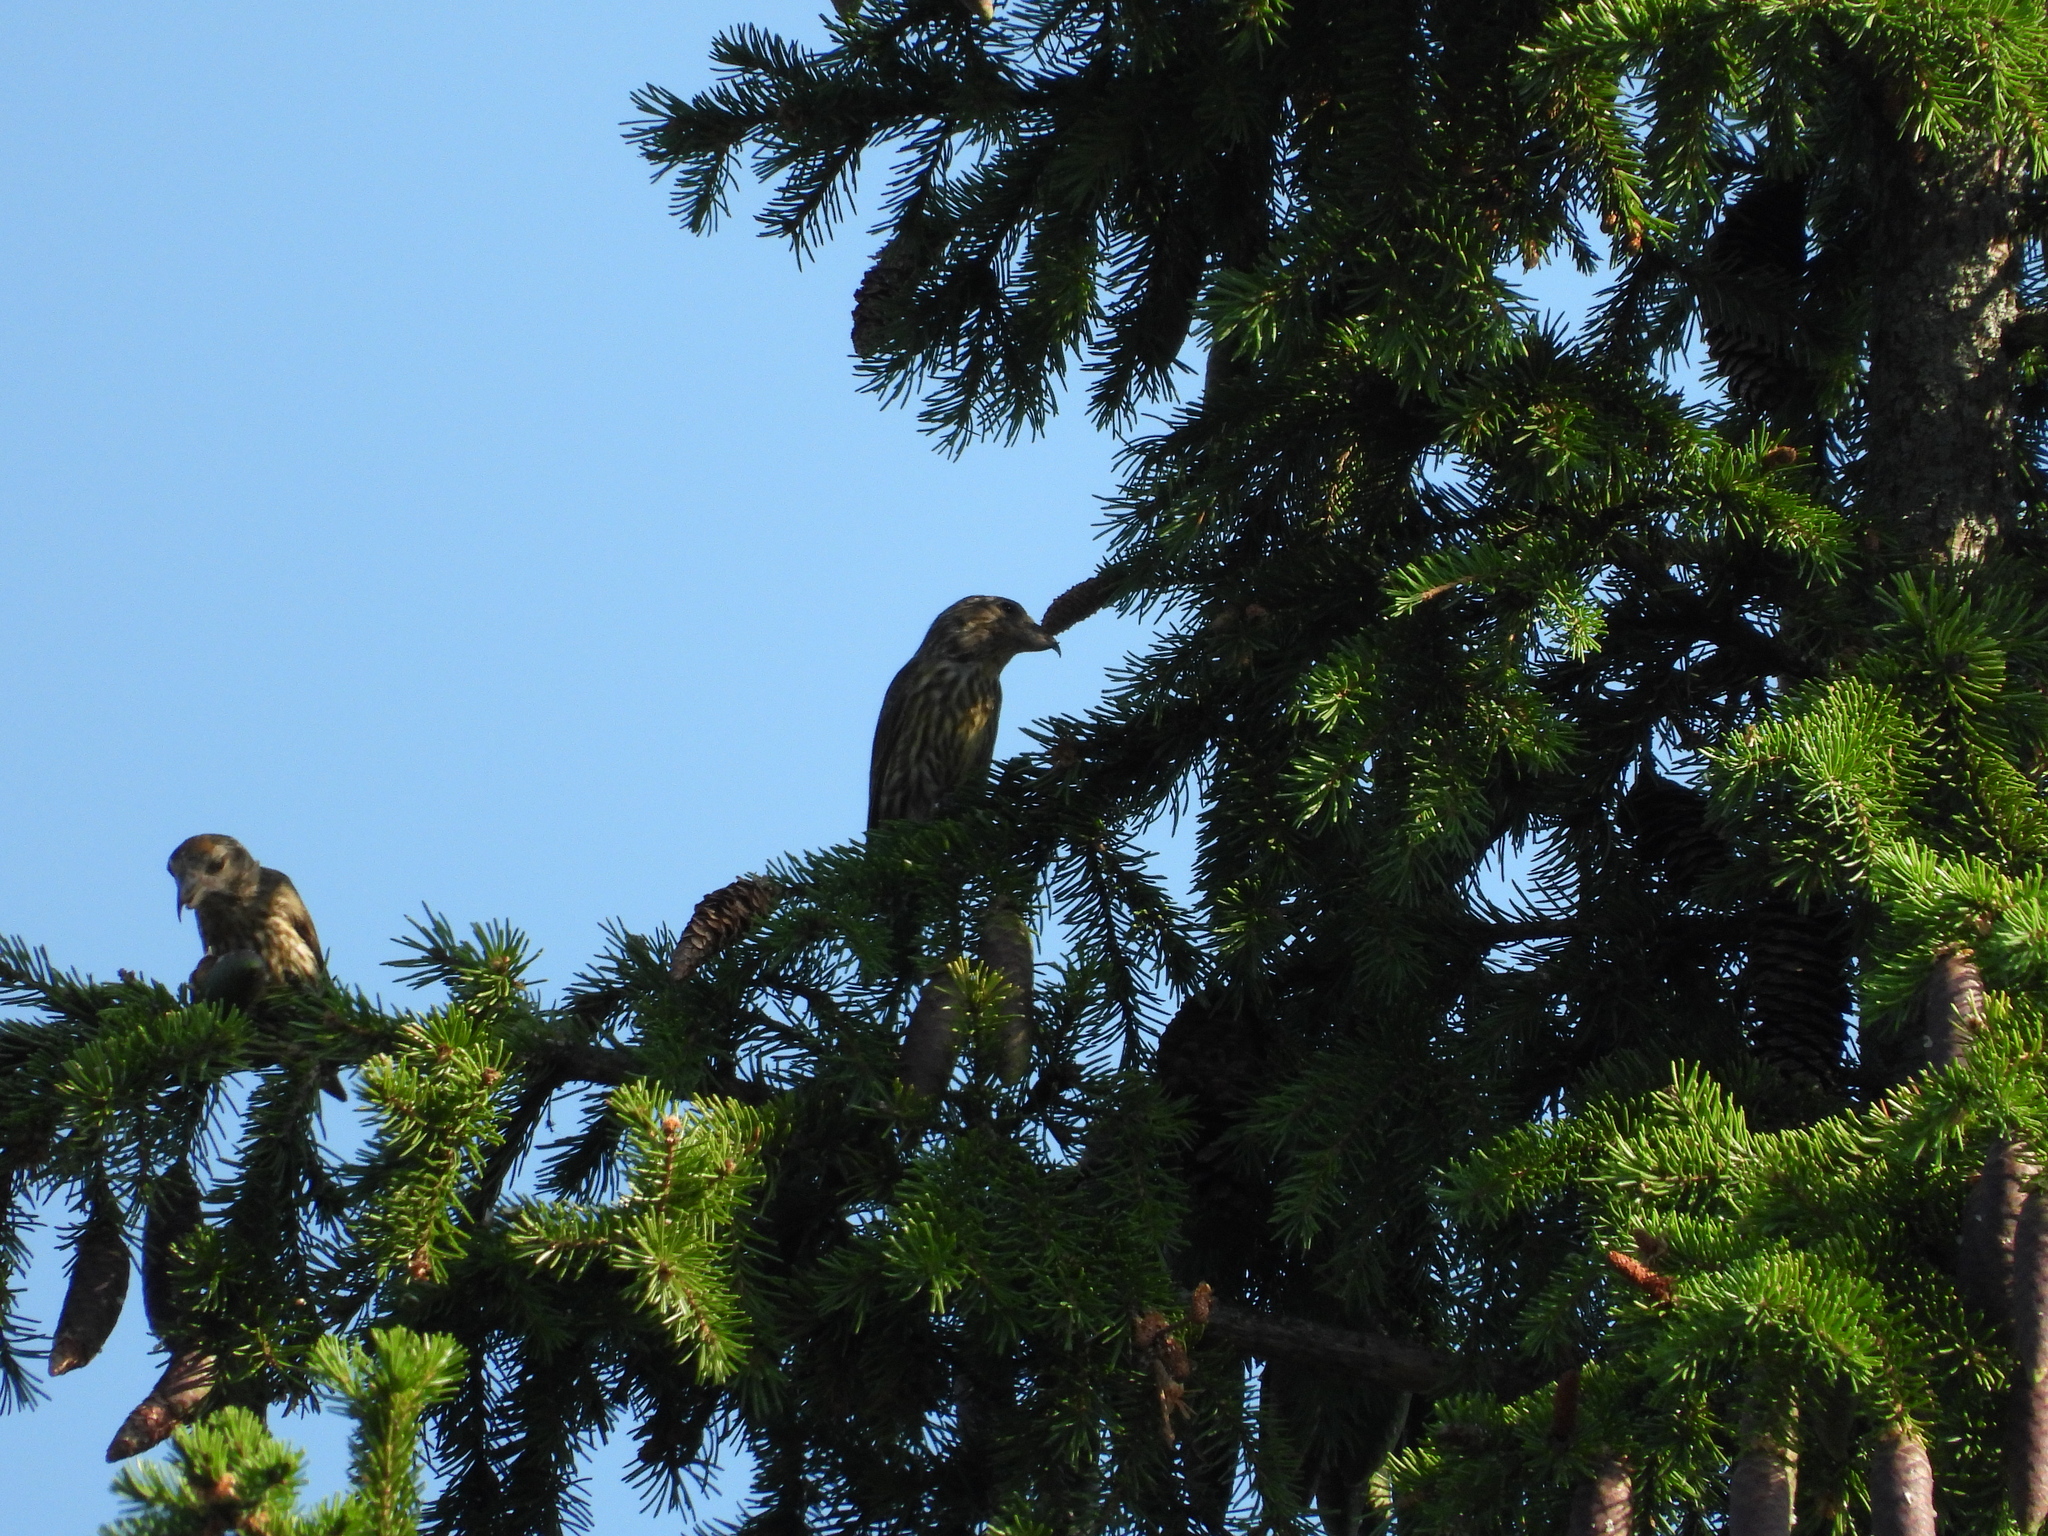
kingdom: Animalia
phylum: Chordata
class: Aves
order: Passeriformes
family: Fringillidae
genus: Loxia
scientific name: Loxia curvirostra
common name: Red crossbill
